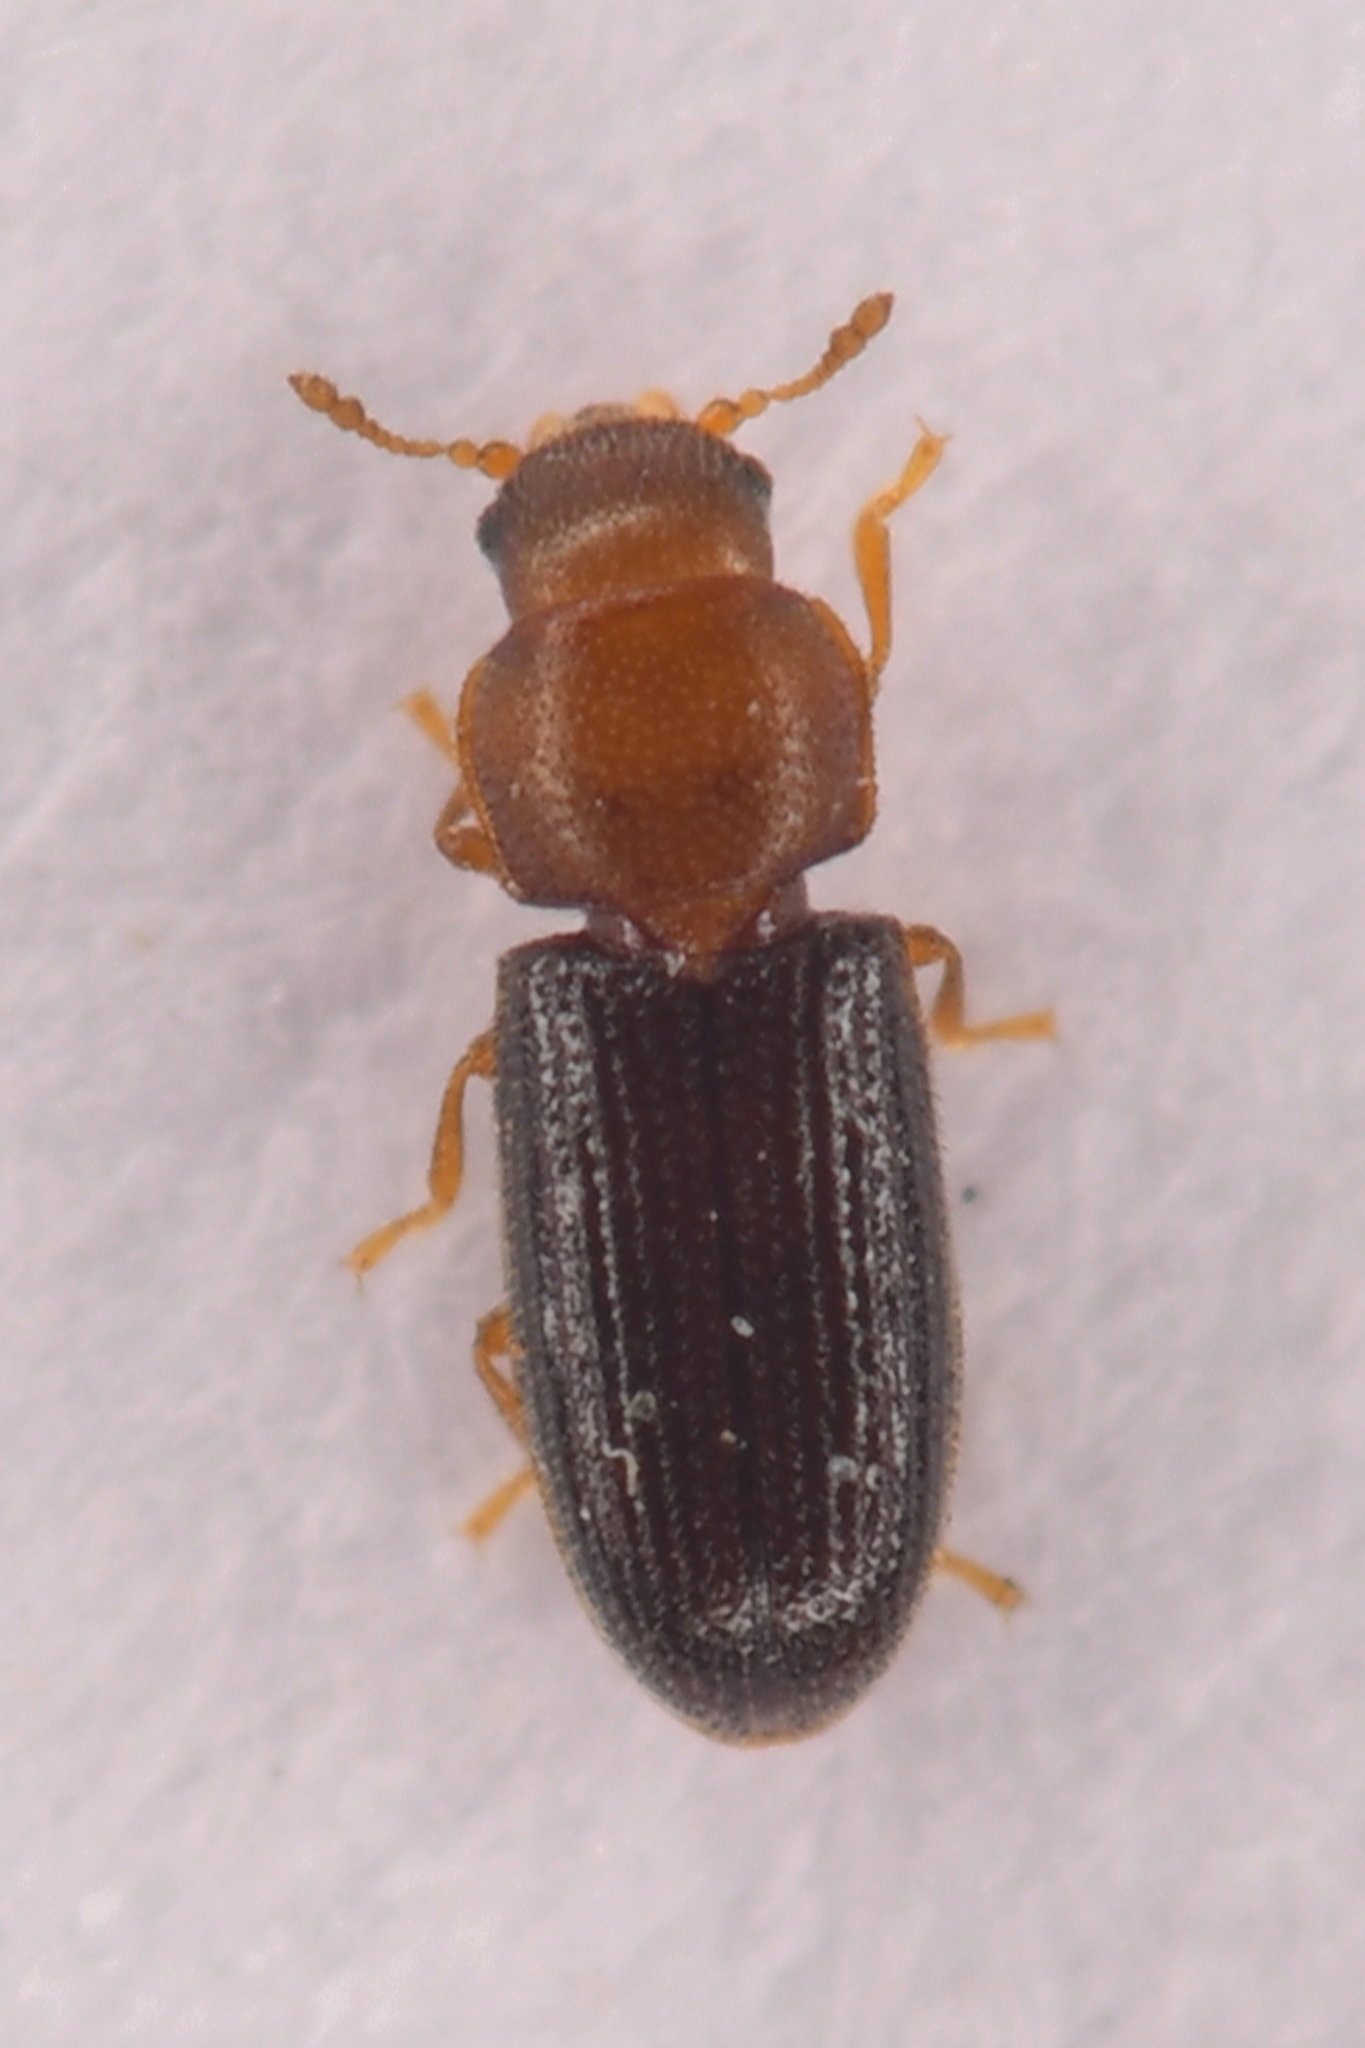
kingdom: Animalia
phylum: Arthropoda
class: Insecta
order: Coleoptera
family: Ciidae
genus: Hadraule
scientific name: Hadraule blaisdelli
